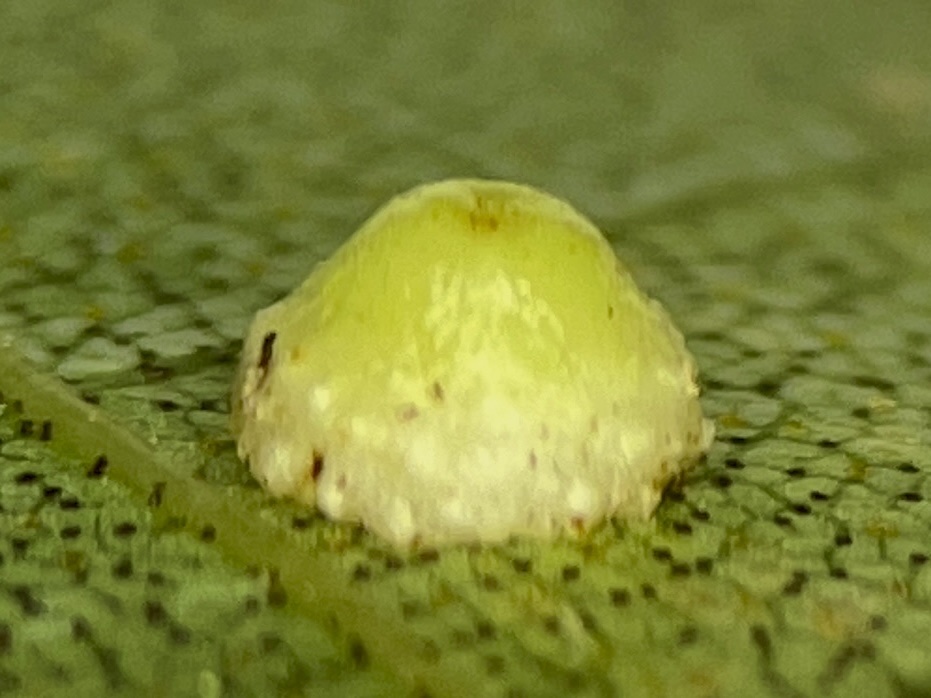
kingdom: Animalia
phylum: Arthropoda
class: Insecta
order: Diptera
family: Cecidomyiidae
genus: Caryomyia
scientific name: Caryomyia glebosa
